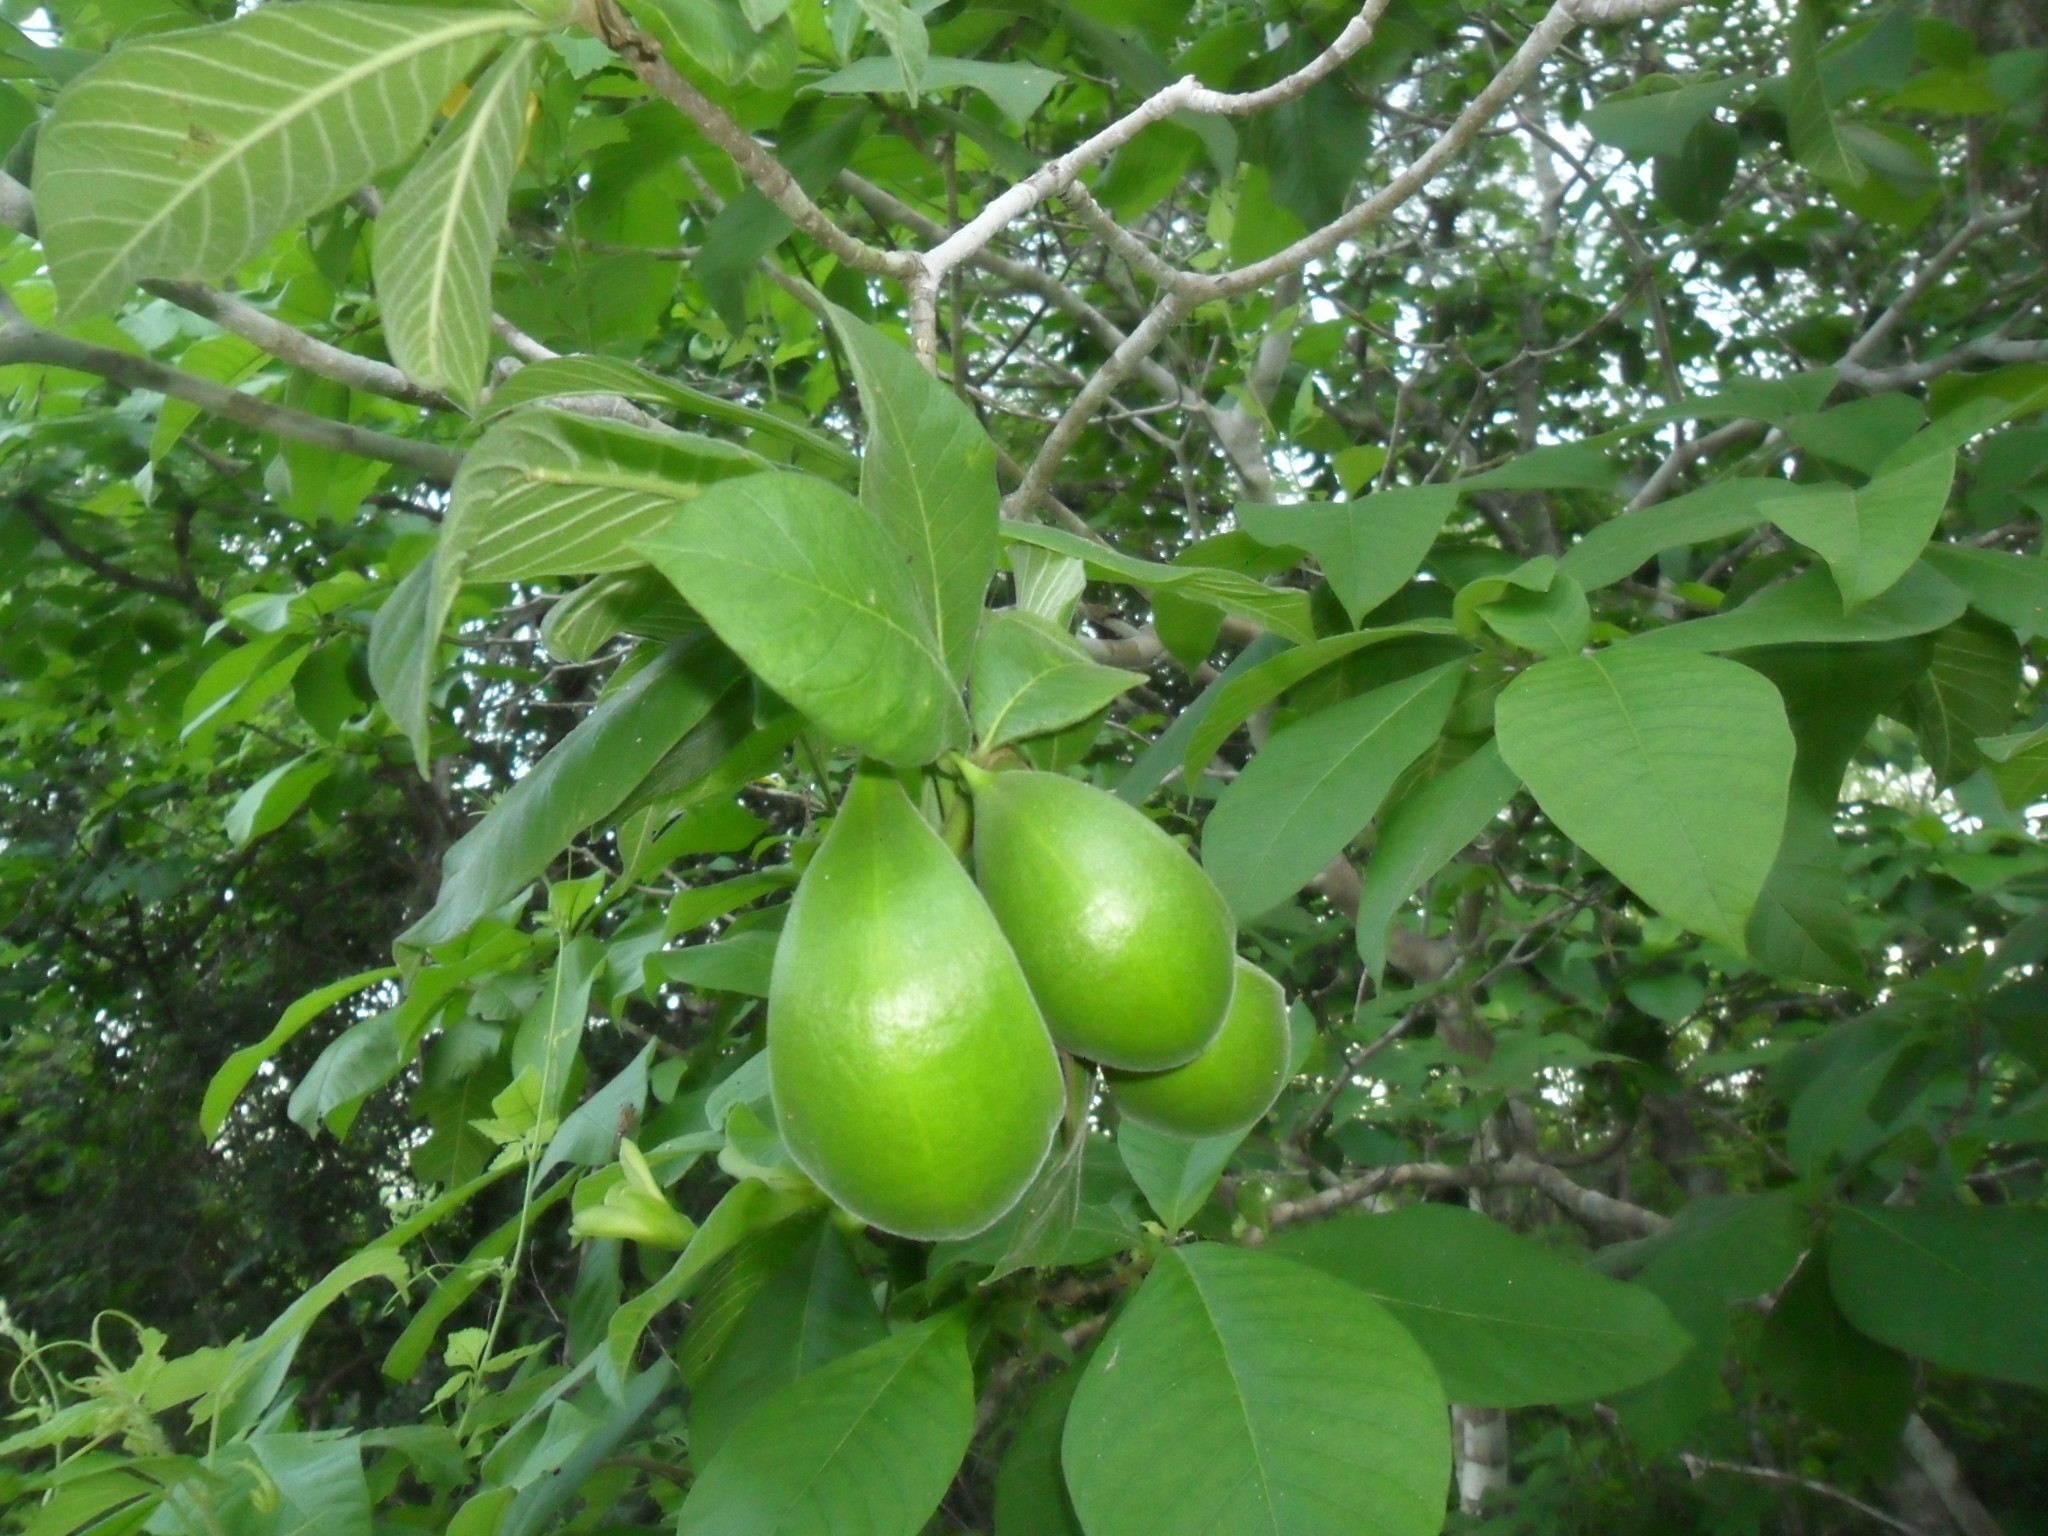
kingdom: Plantae
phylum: Tracheophyta
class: Magnoliopsida
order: Gentianales
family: Apocynaceae
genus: Tabernaemontana
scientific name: Tabernaemontana glabra
